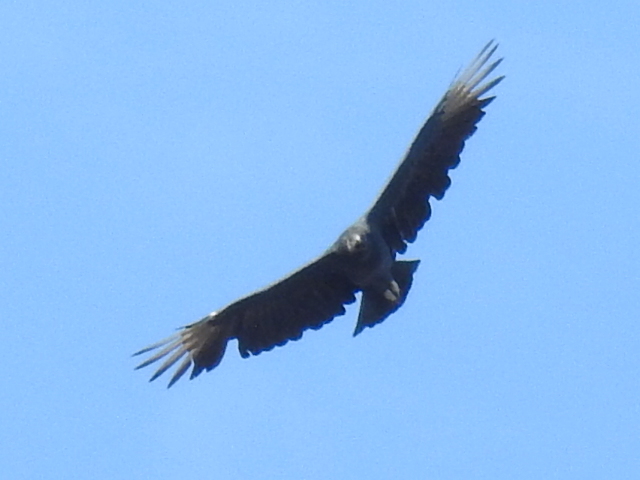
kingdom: Animalia
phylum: Chordata
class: Aves
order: Accipitriformes
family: Cathartidae
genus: Coragyps
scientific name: Coragyps atratus
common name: Black vulture
